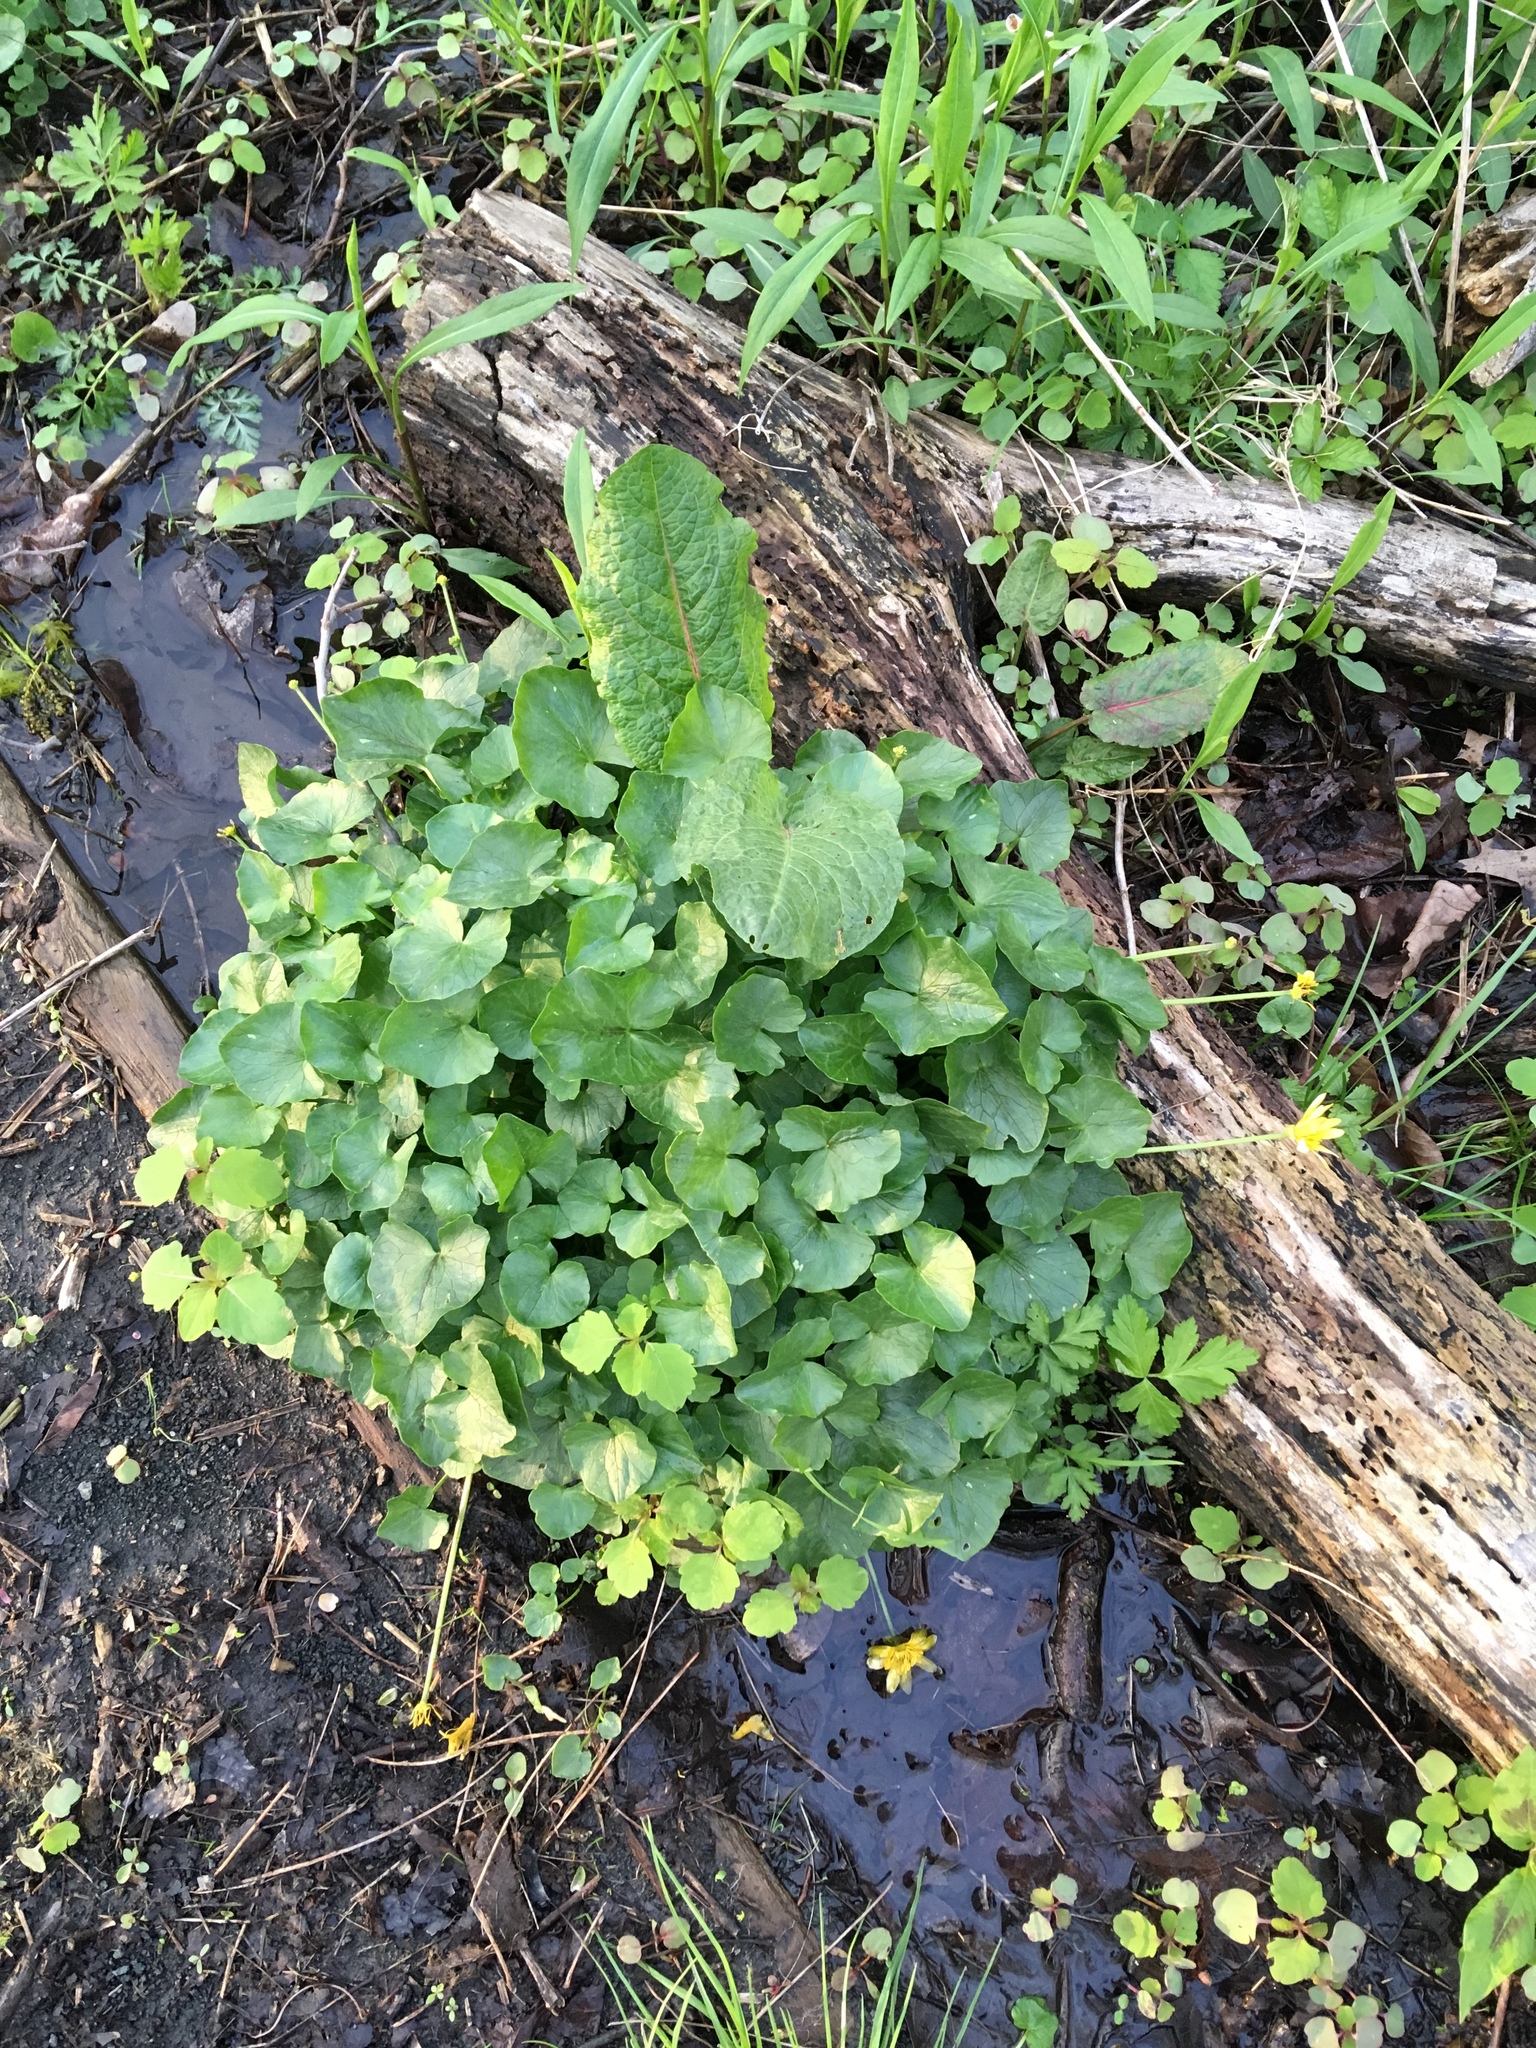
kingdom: Plantae
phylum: Tracheophyta
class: Magnoliopsida
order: Ranunculales
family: Ranunculaceae
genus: Ficaria
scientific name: Ficaria verna
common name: Lesser celandine
